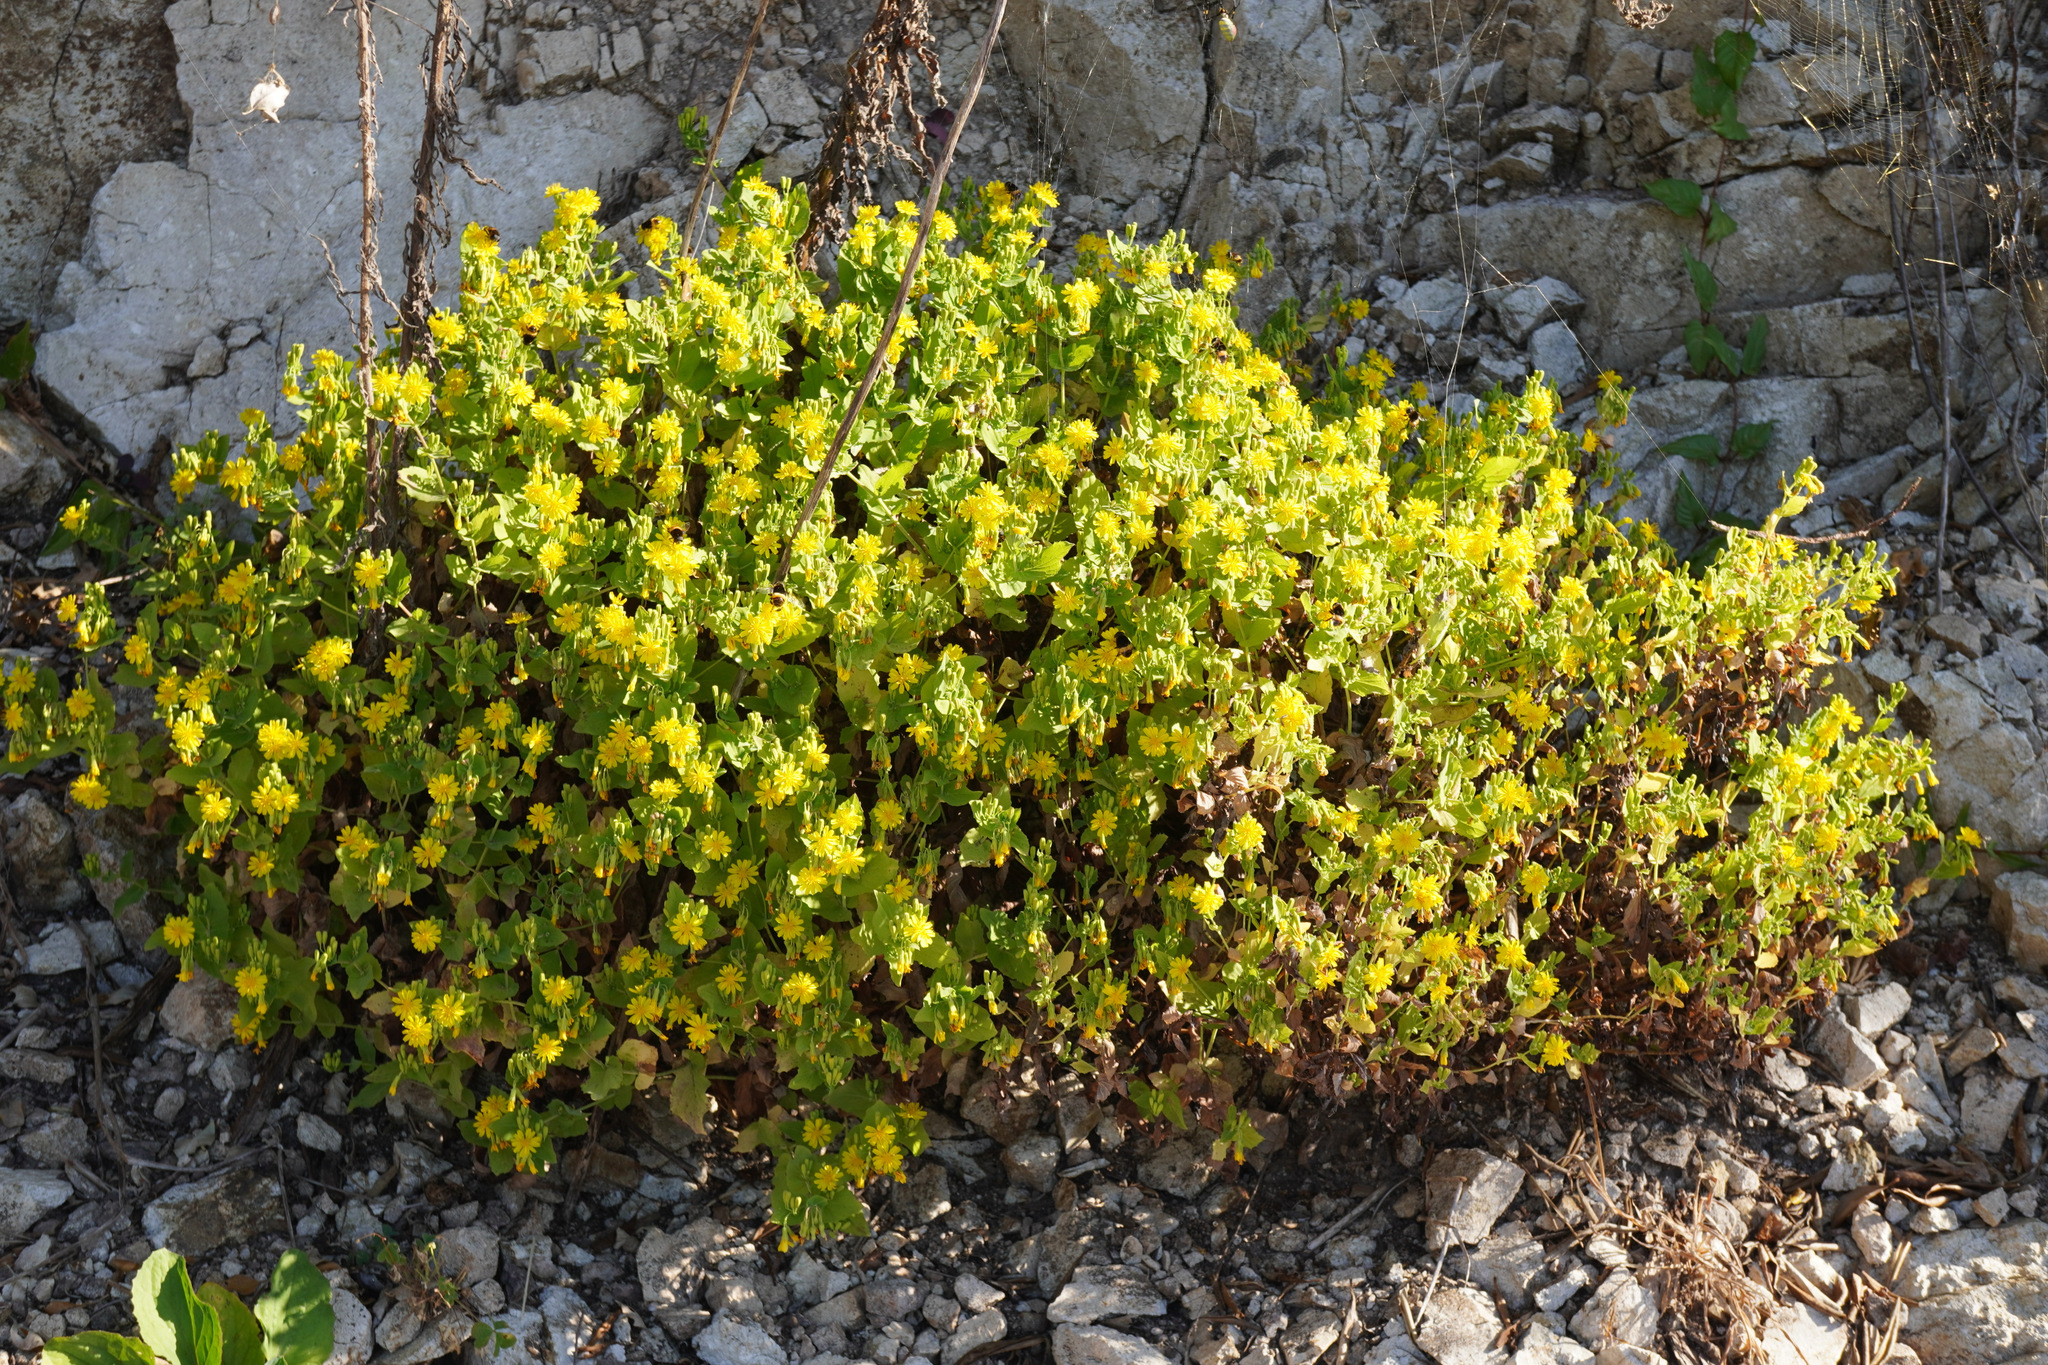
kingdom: Plantae
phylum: Tracheophyta
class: Magnoliopsida
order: Asterales
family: Asteraceae
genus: Crepidiastrum
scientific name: Crepidiastrum denticulatum
